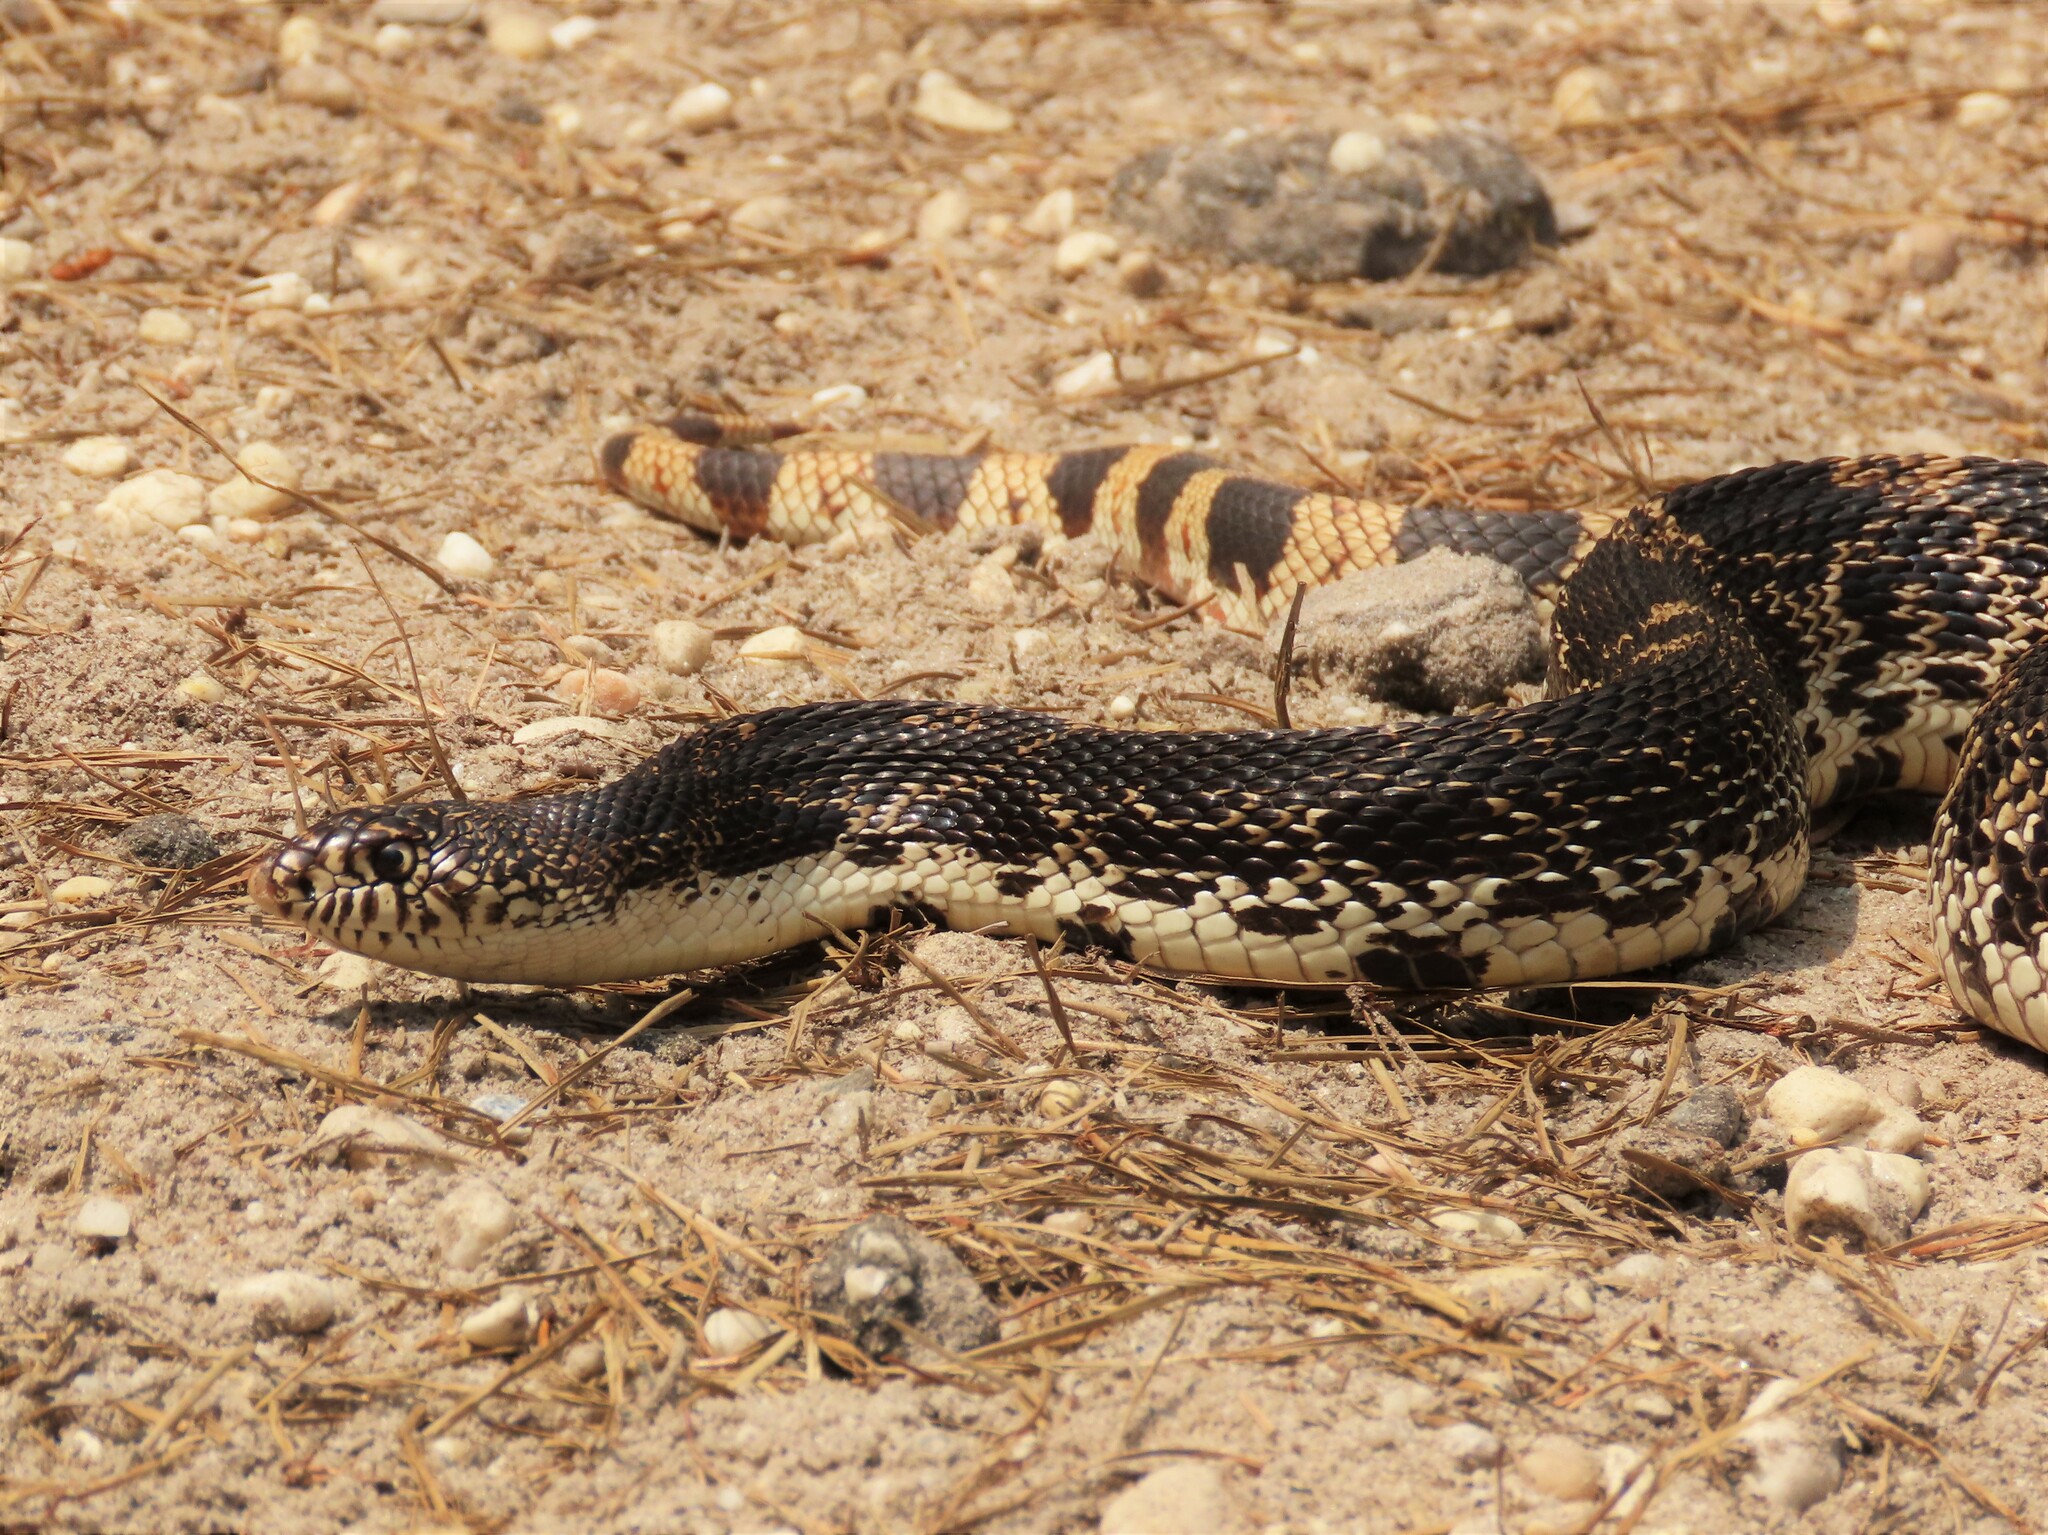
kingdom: Animalia
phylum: Chordata
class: Squamata
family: Colubridae
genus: Pituophis
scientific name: Pituophis melanoleucus
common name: Pine snake
